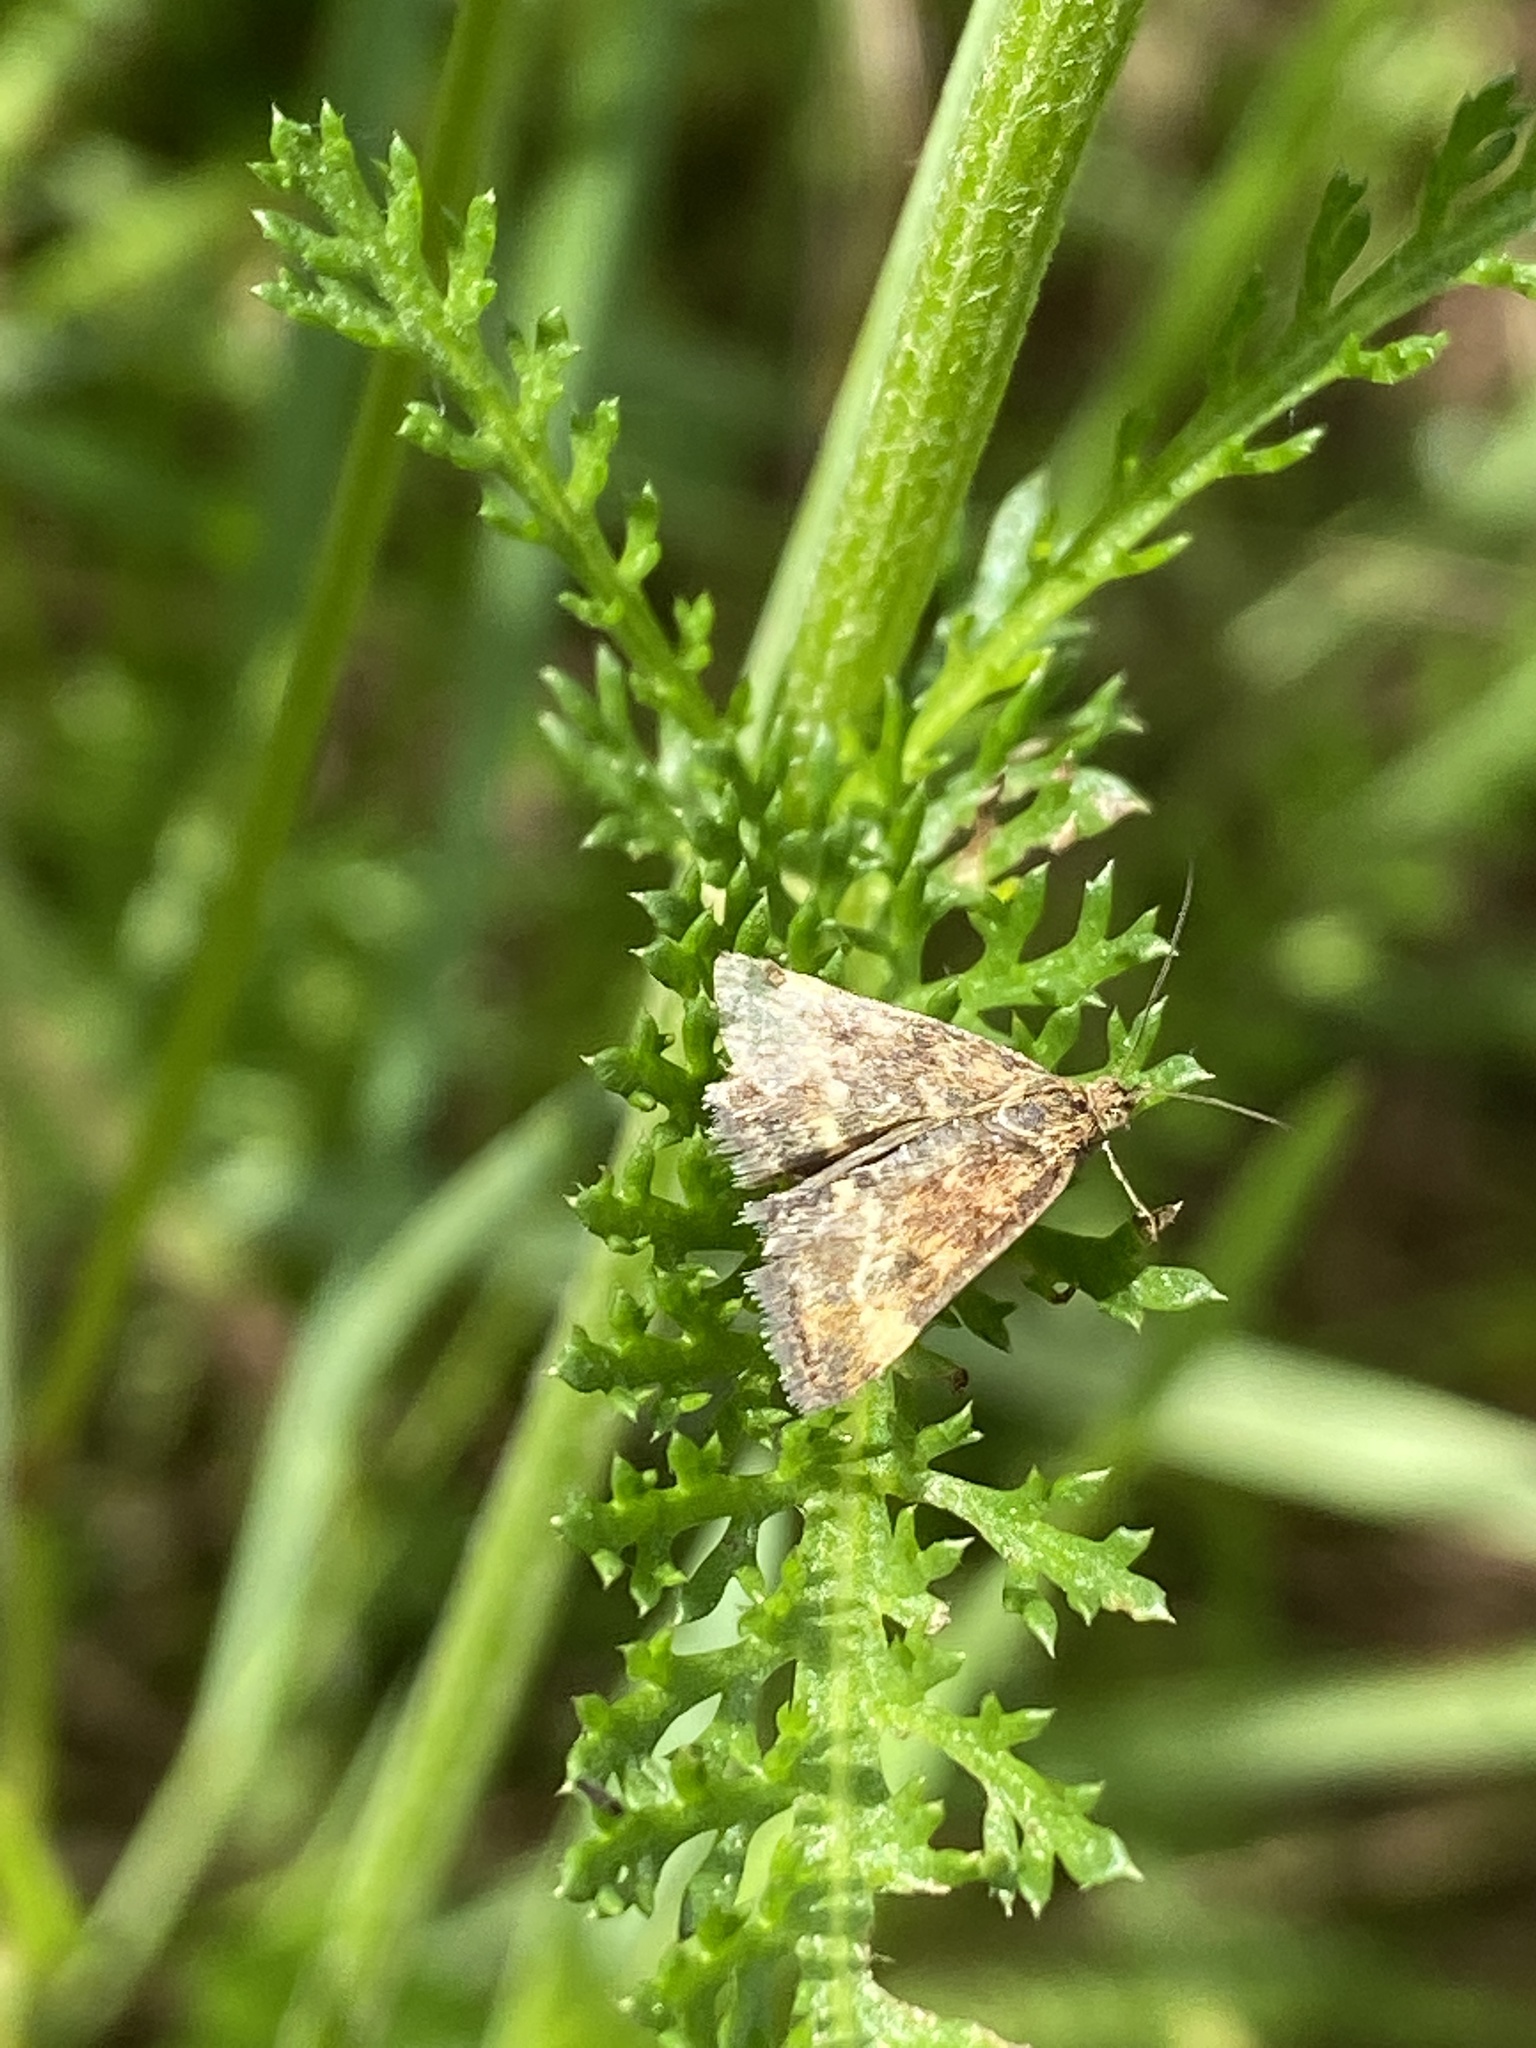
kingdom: Animalia
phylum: Arthropoda
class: Insecta
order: Lepidoptera
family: Crambidae
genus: Pyrausta
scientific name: Pyrausta despicata
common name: Straw-barred pearl
